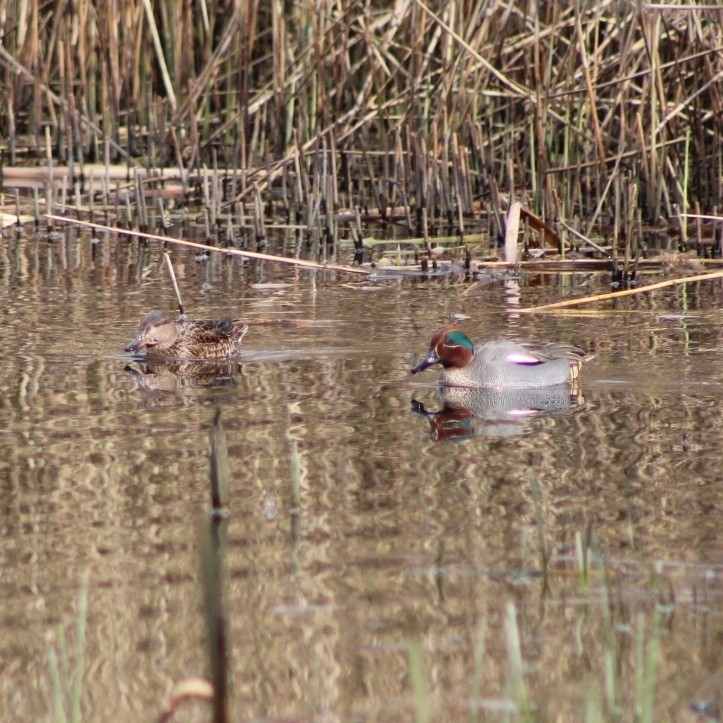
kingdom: Animalia
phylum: Chordata
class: Aves
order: Anseriformes
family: Anatidae
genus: Anas
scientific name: Anas crecca
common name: Eurasian teal
